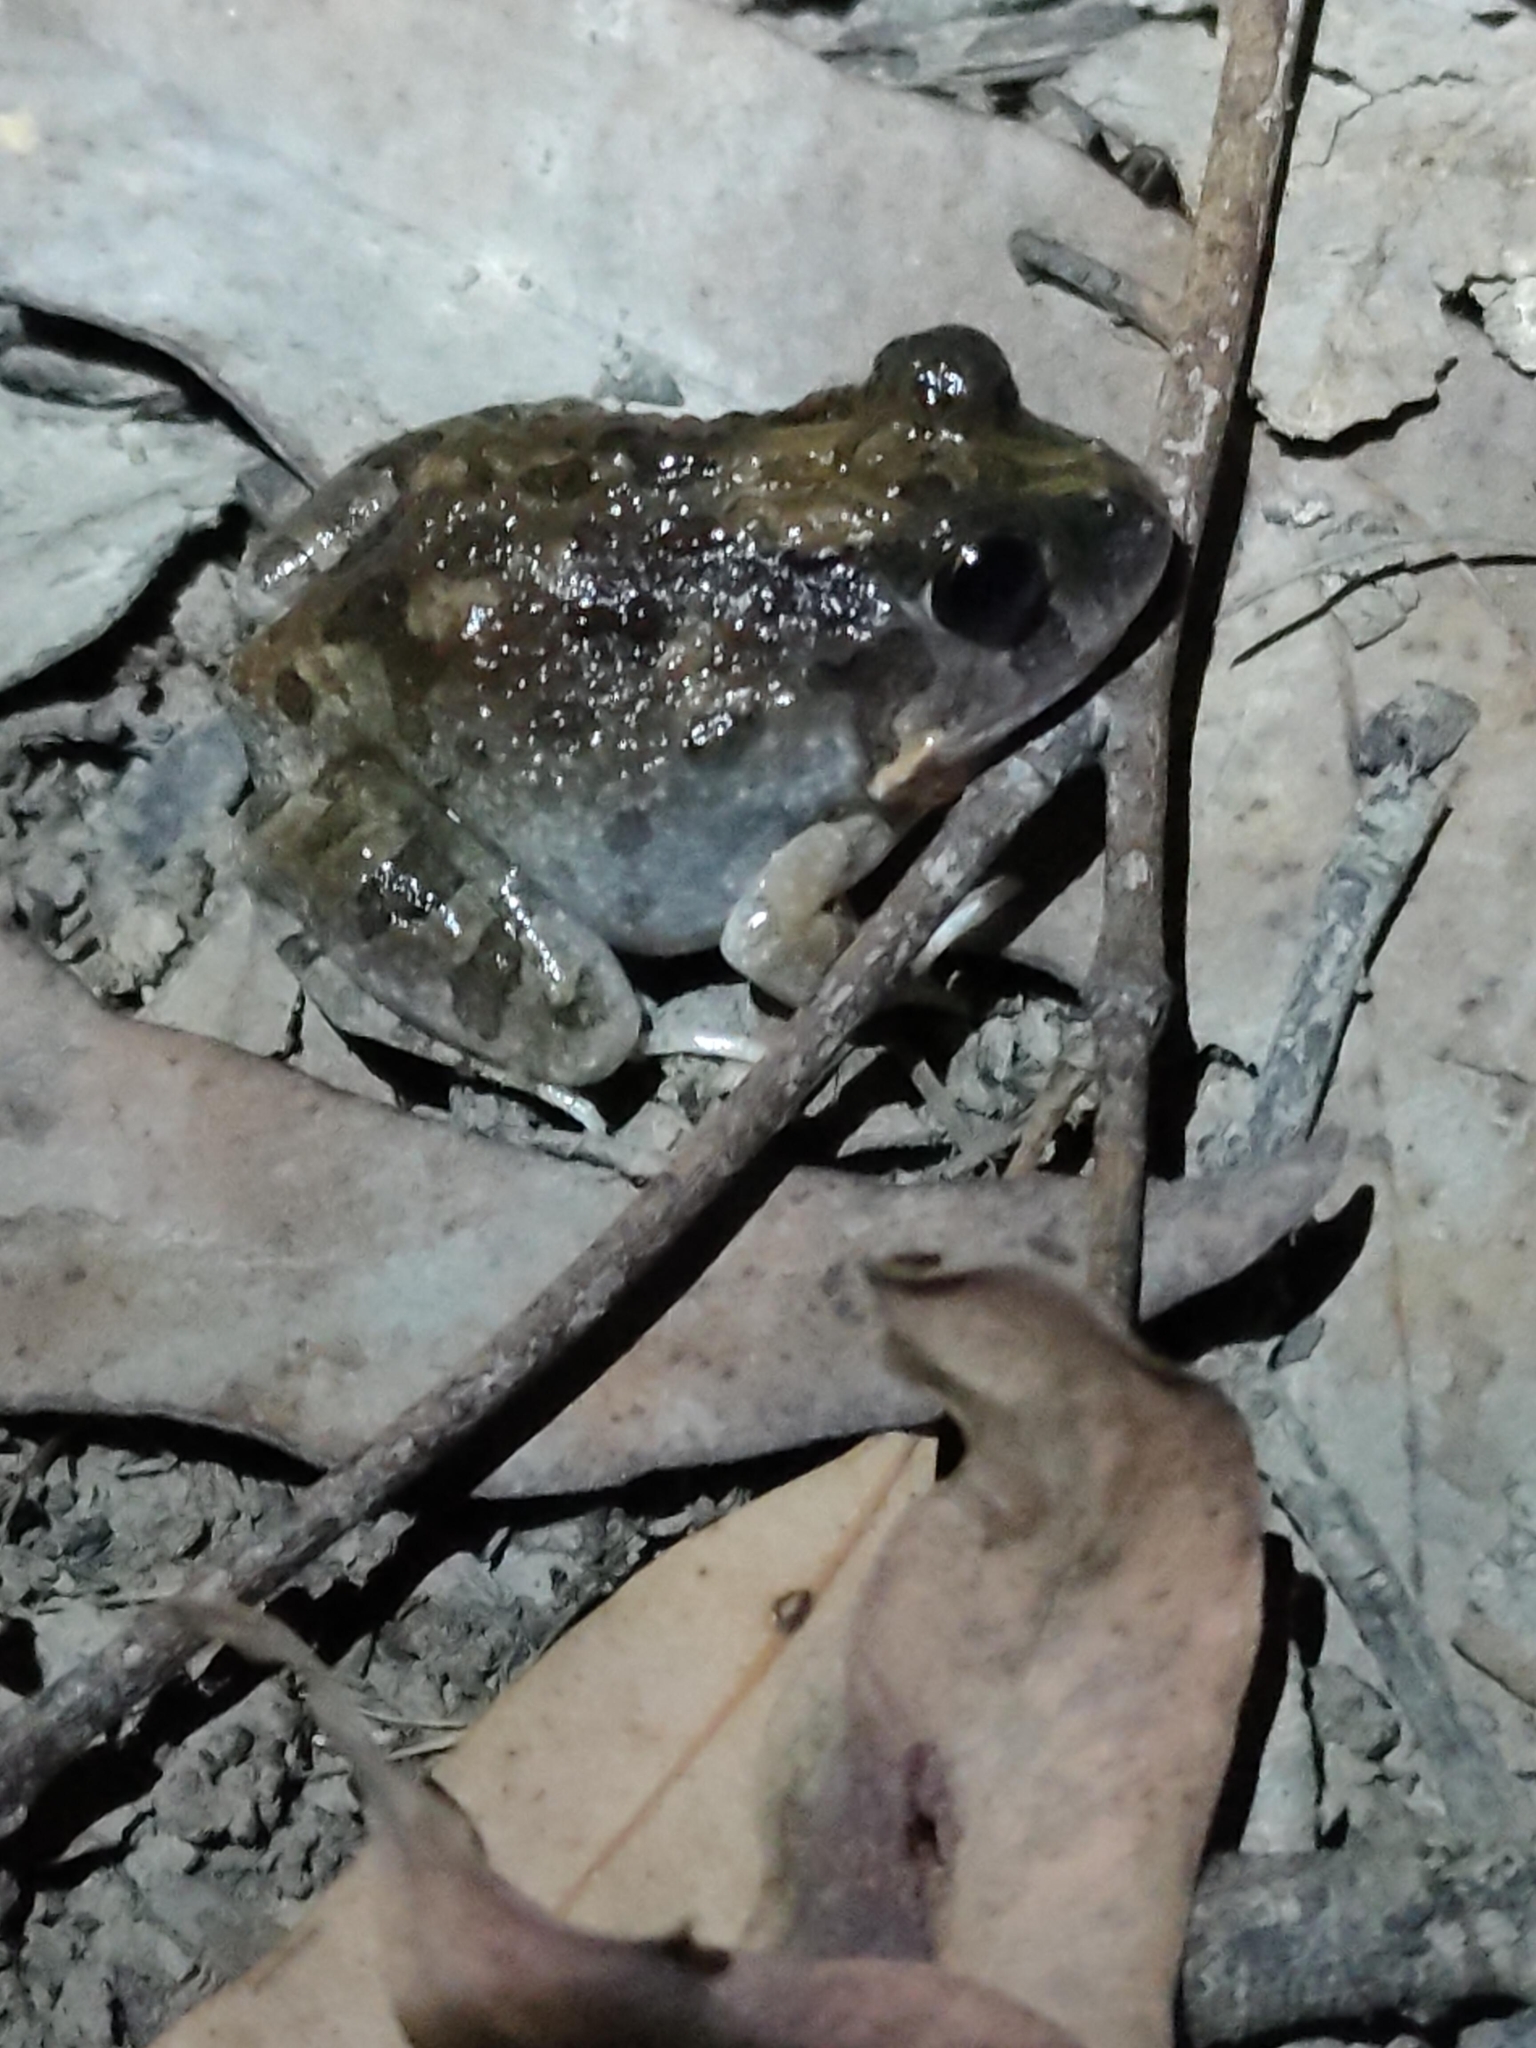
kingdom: Animalia
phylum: Chordata
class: Amphibia
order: Anura
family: Limnodynastidae
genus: Platyplectrum
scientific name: Platyplectrum ornatum
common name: Ornate burrowing frog
